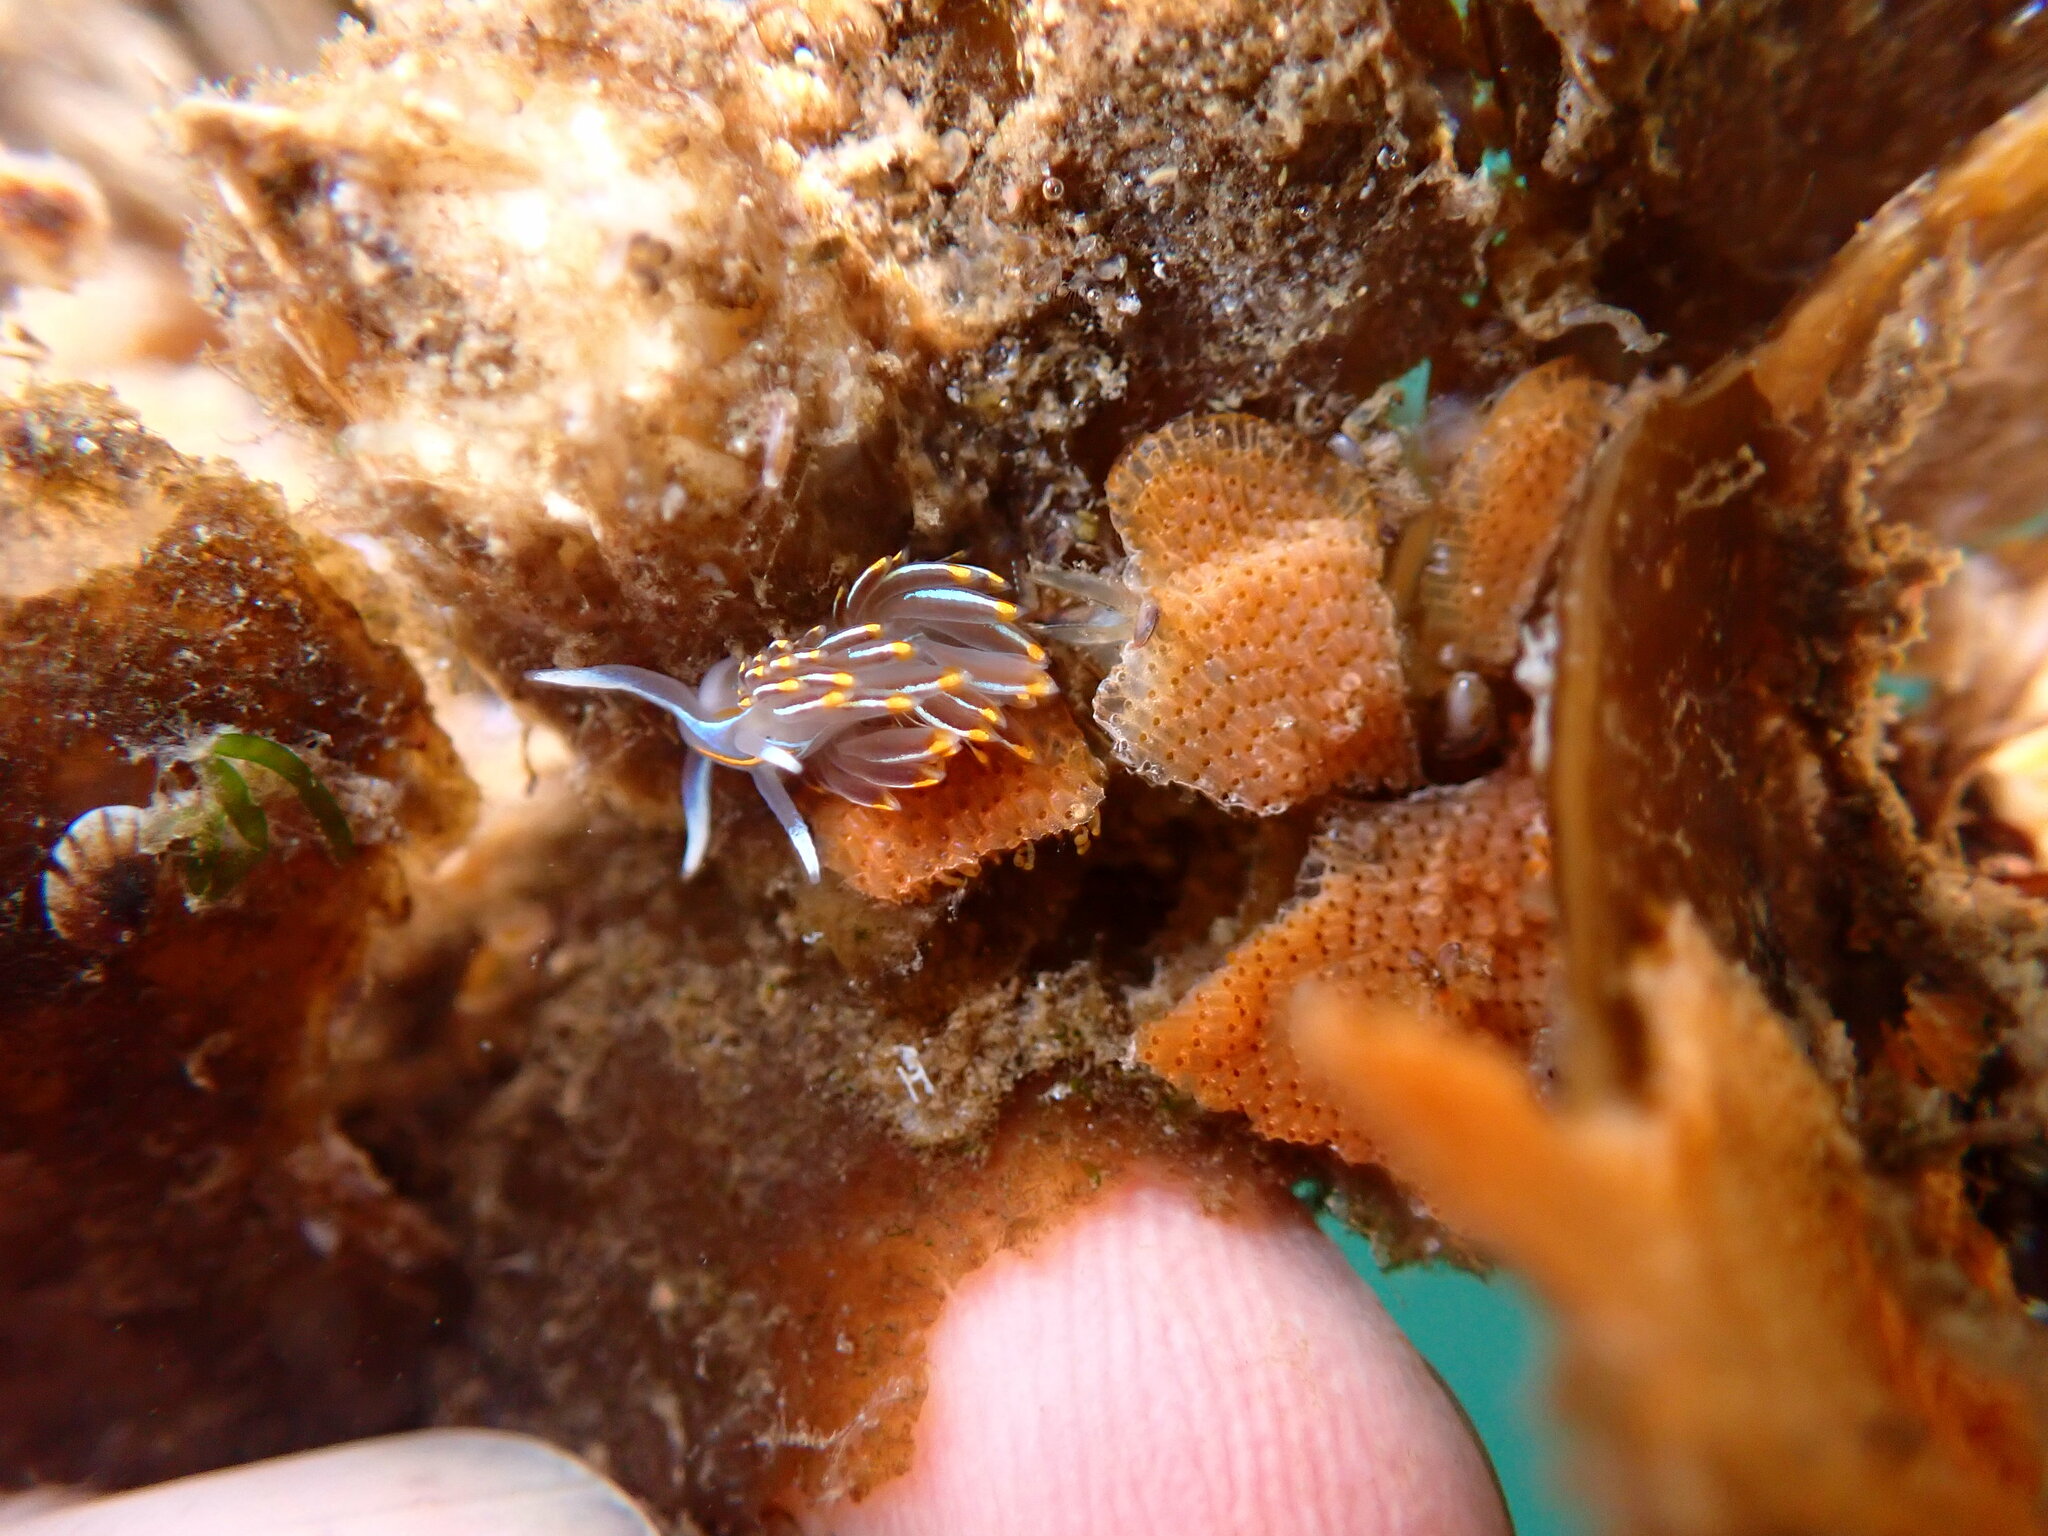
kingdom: Animalia
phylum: Mollusca
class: Gastropoda
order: Nudibranchia
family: Myrrhinidae
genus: Hermissenda
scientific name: Hermissenda crassicornis
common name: Hermissenda
